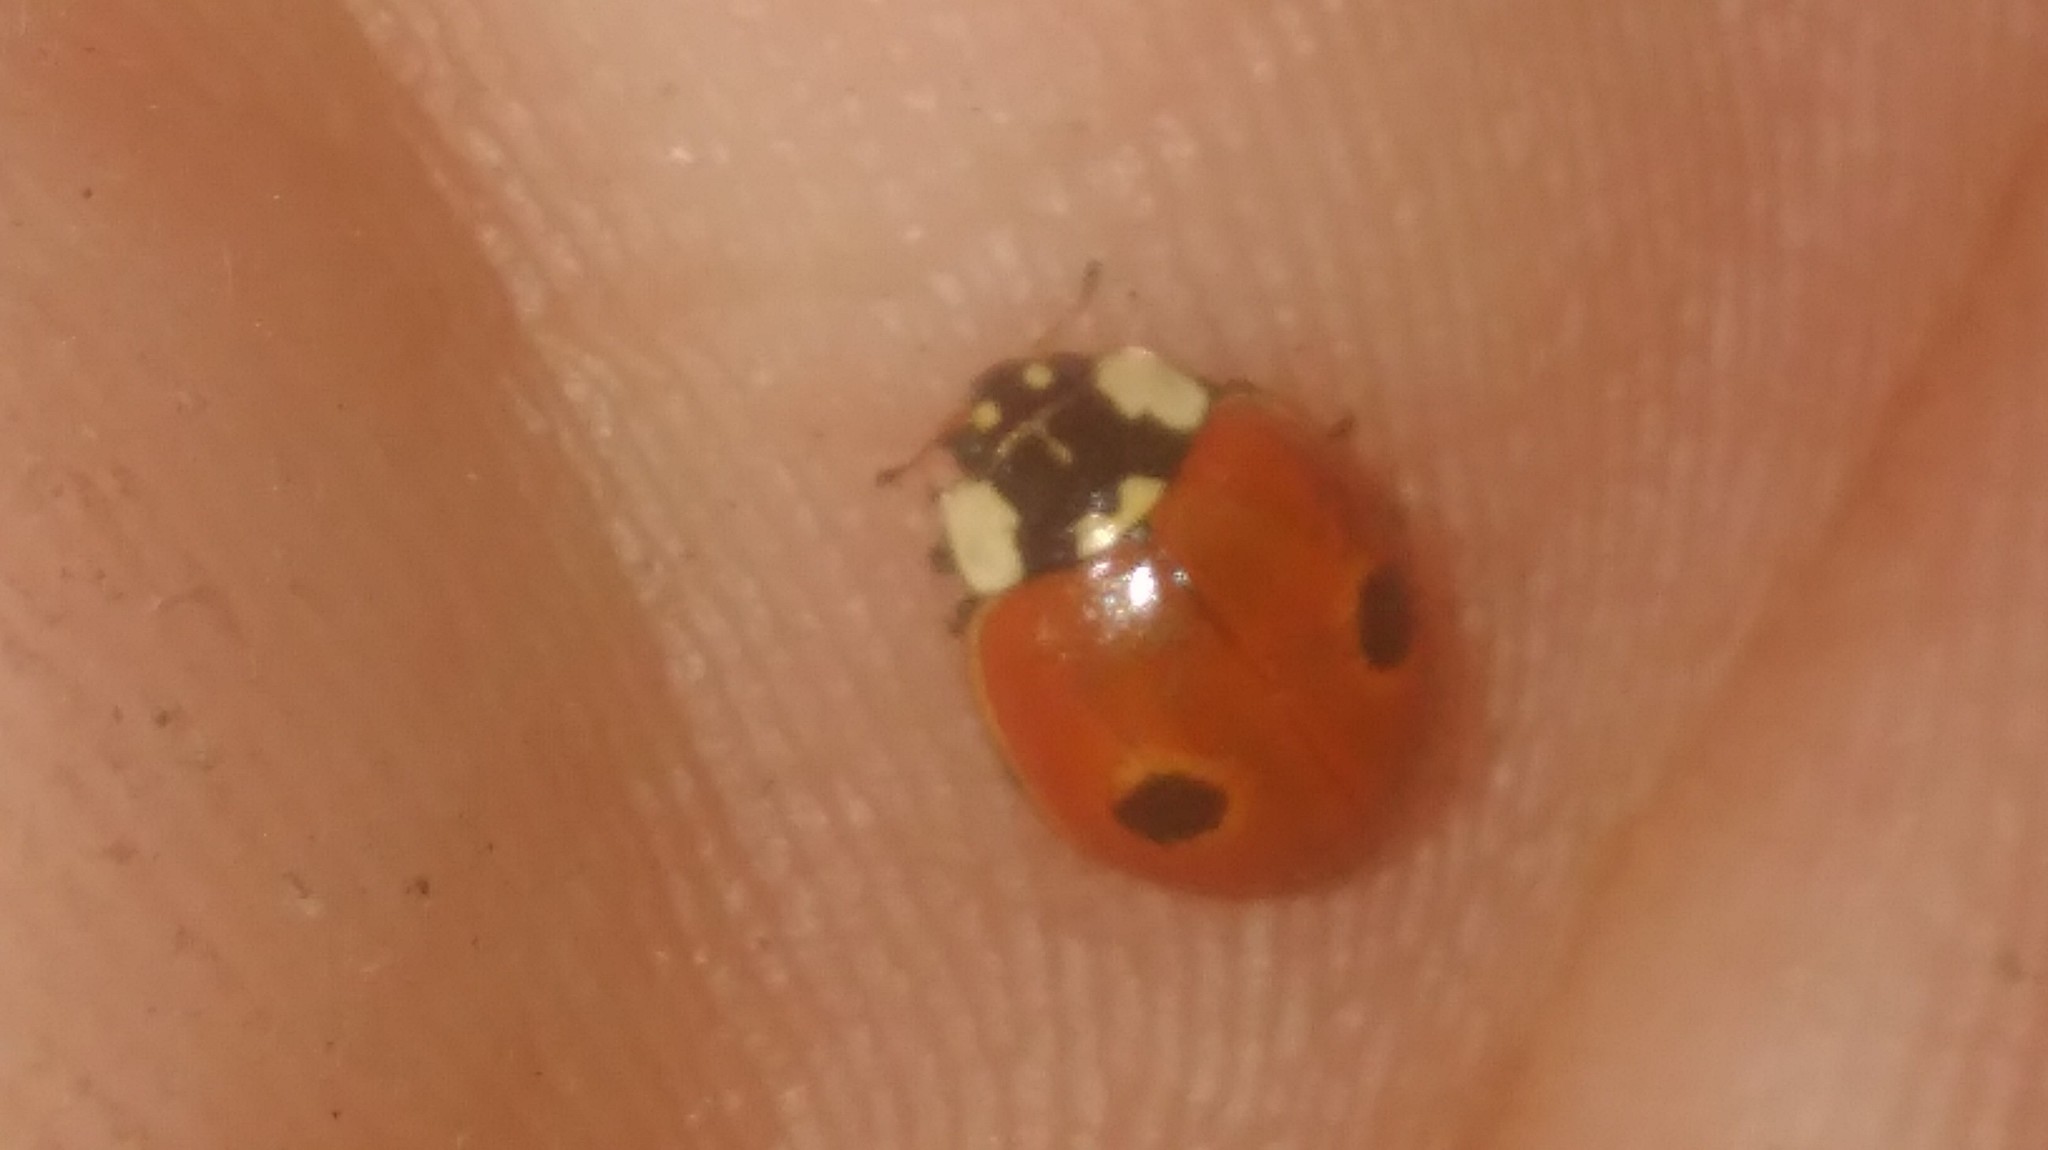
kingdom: Animalia
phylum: Arthropoda
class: Insecta
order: Coleoptera
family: Coccinellidae
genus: Adalia
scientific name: Adalia bipunctata
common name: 2-spot ladybird
